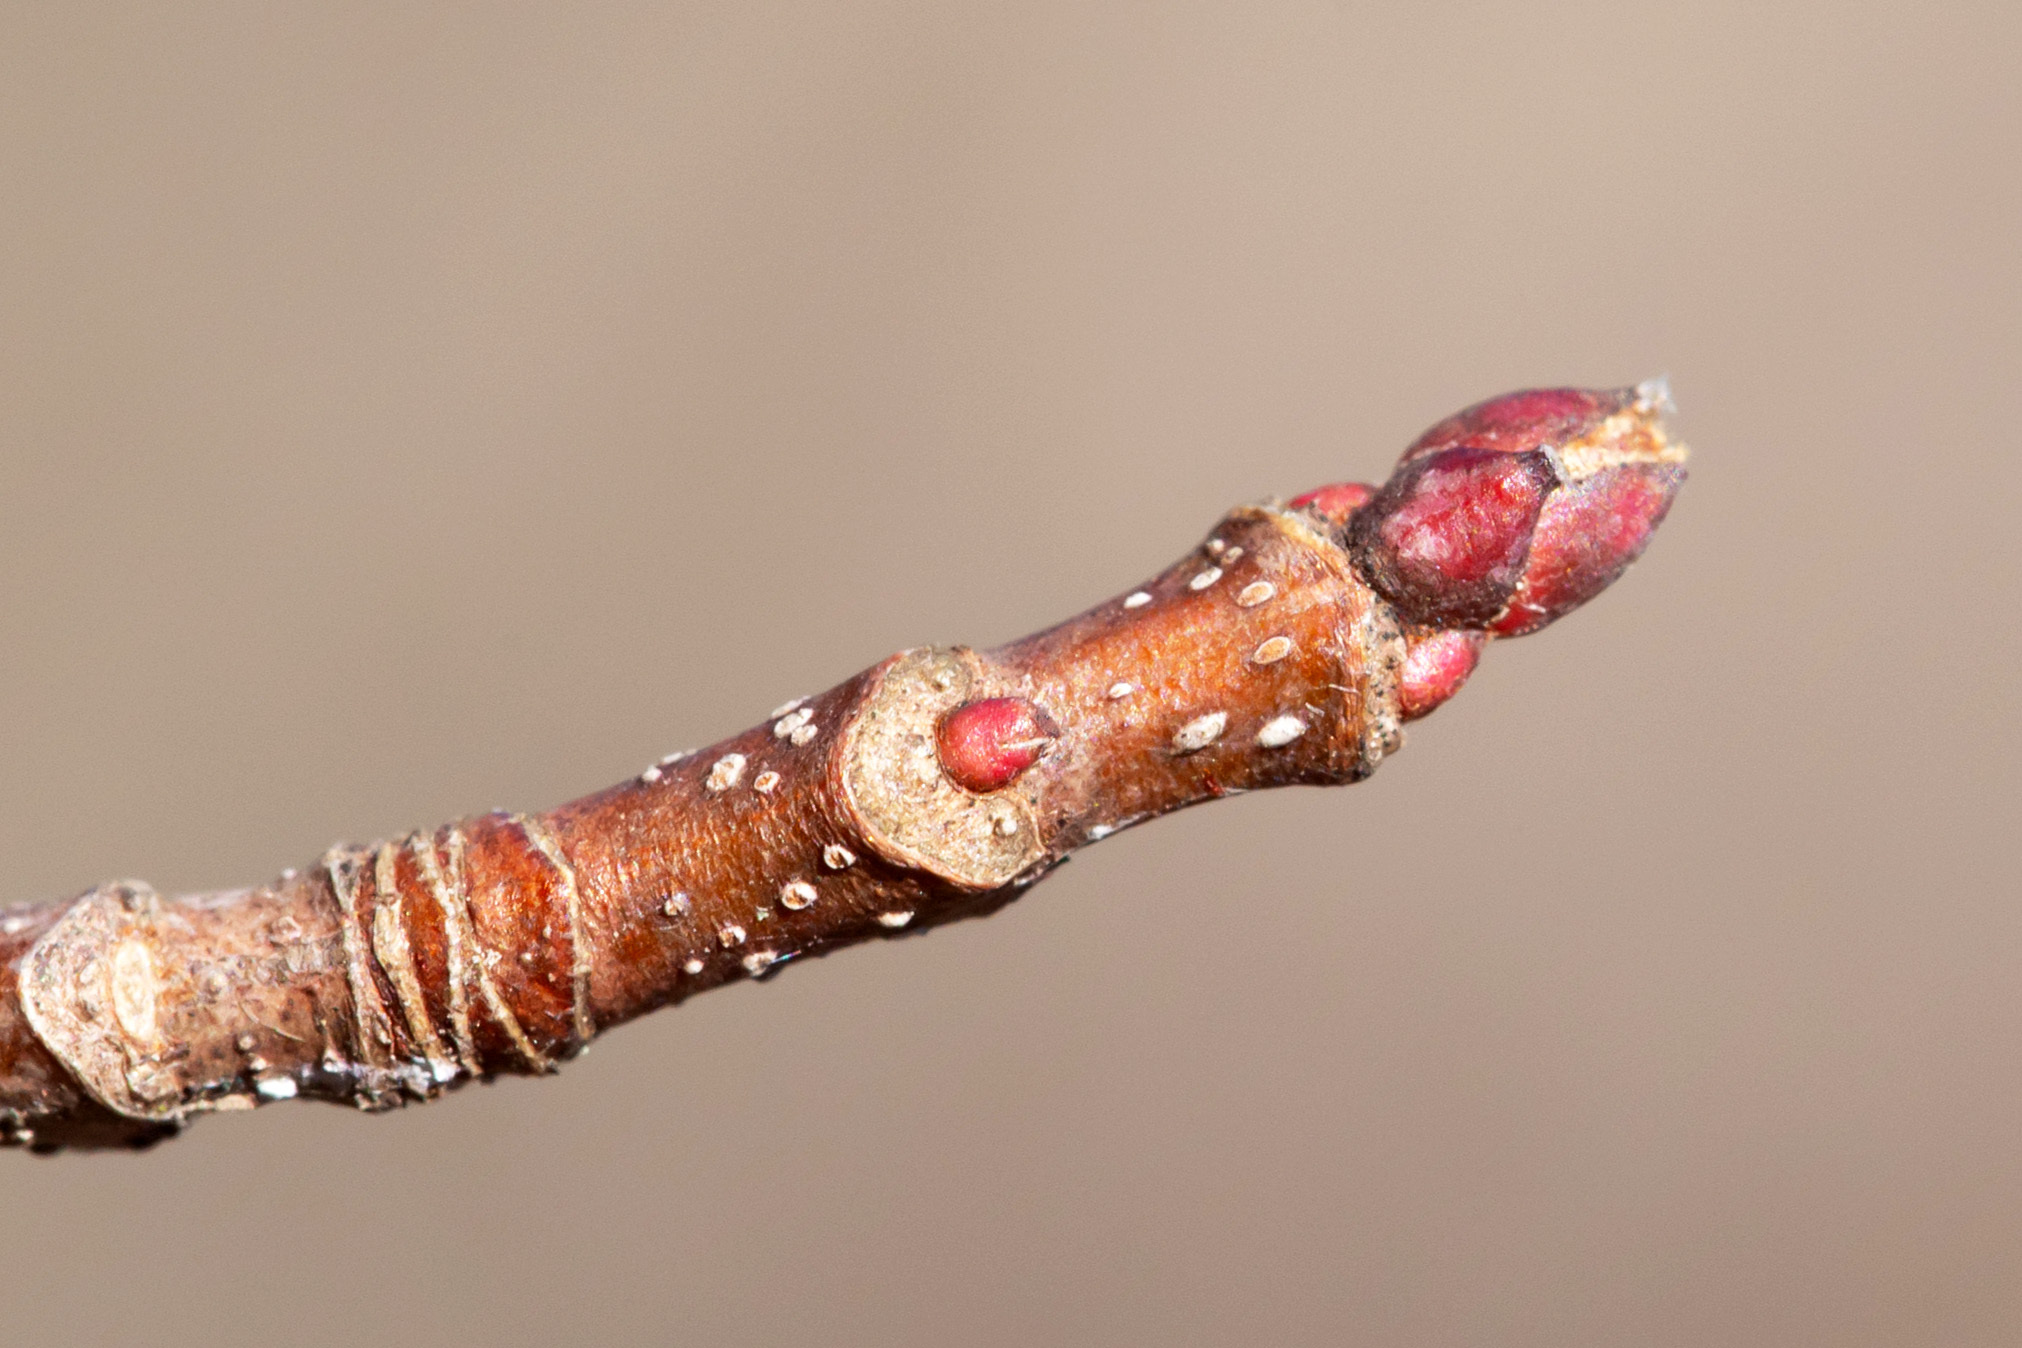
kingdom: Plantae
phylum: Tracheophyta
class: Magnoliopsida
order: Sapindales
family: Sapindaceae
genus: Acer
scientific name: Acer rubrum
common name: Red maple
